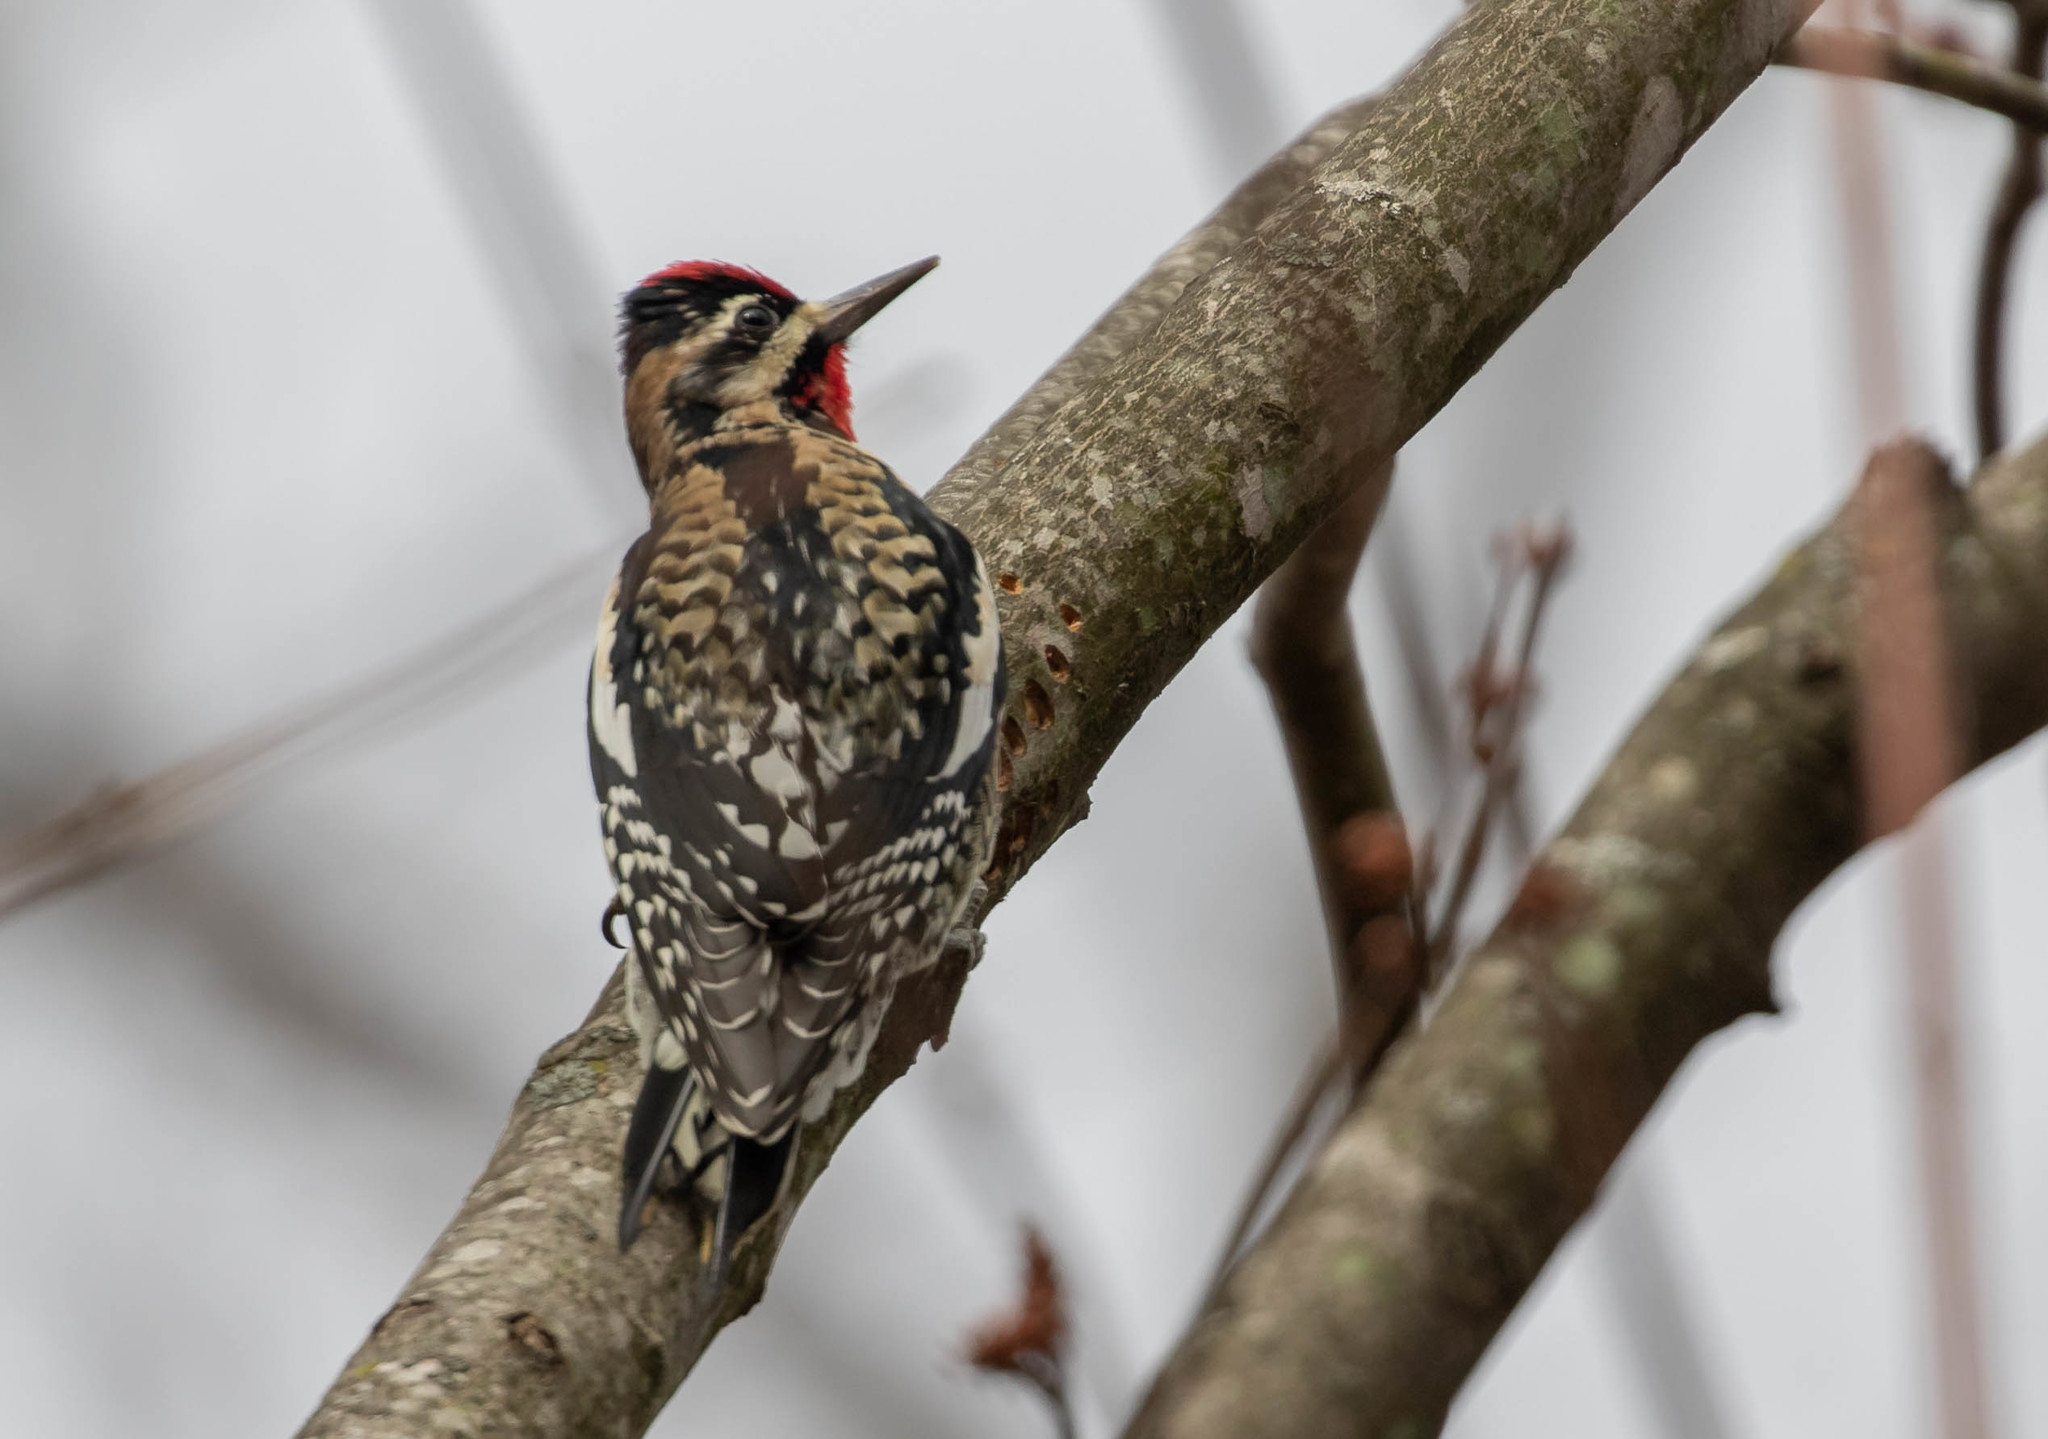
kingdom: Animalia
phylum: Chordata
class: Aves
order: Piciformes
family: Picidae
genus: Sphyrapicus
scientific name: Sphyrapicus varius
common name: Yellow-bellied sapsucker
